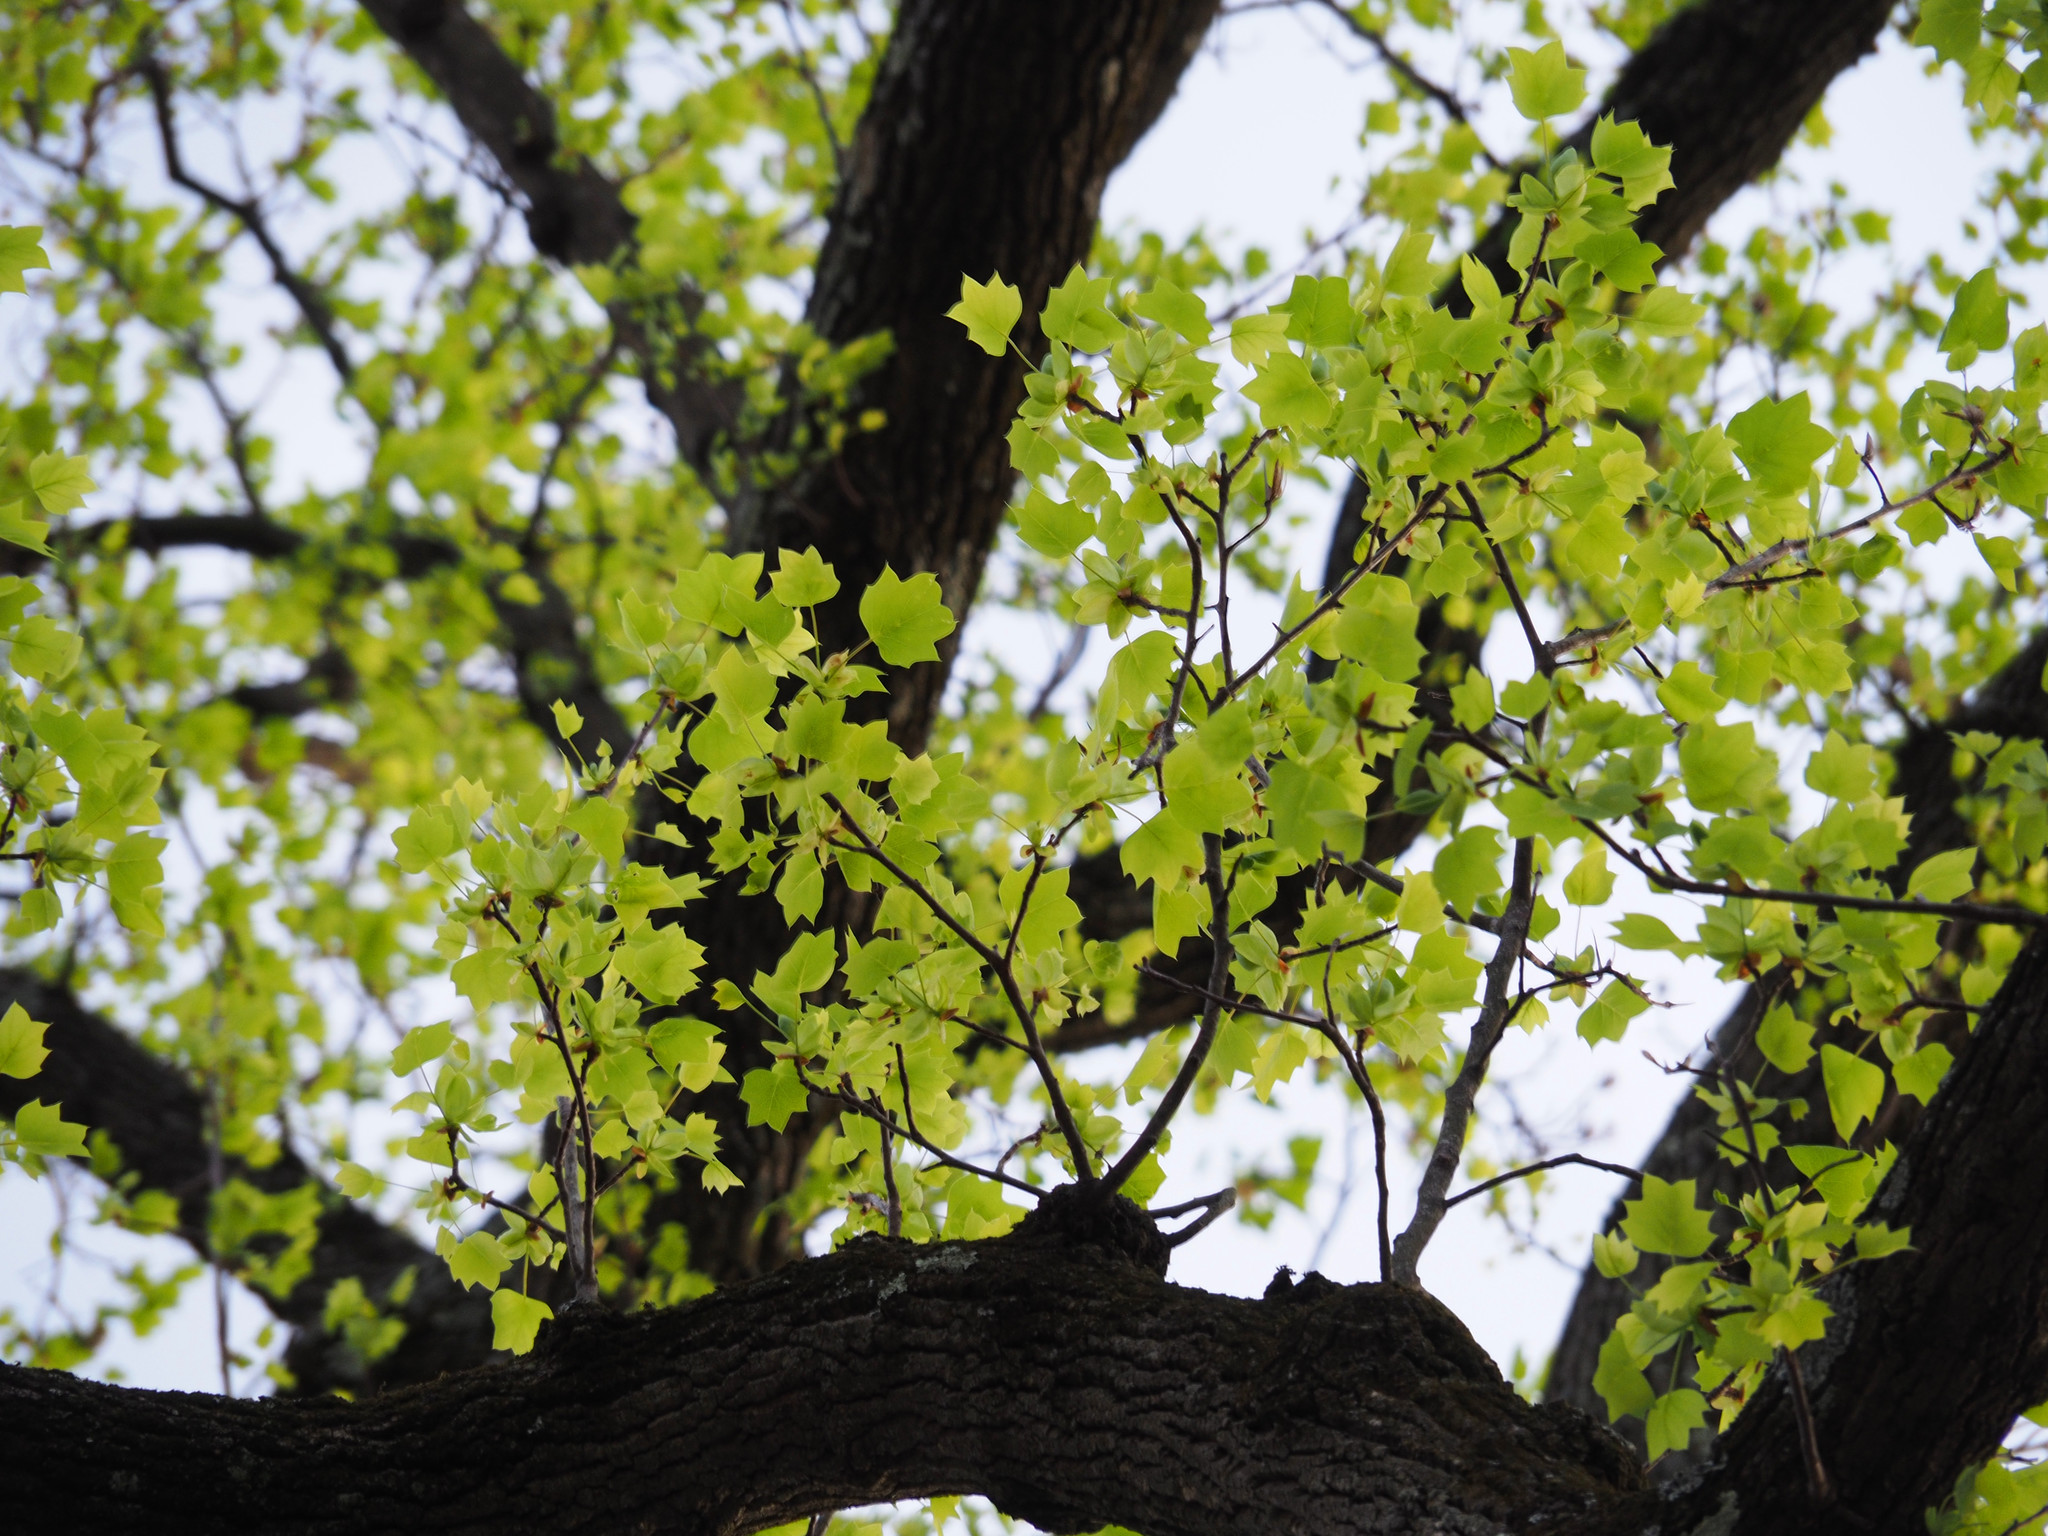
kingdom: Plantae
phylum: Tracheophyta
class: Magnoliopsida
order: Magnoliales
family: Magnoliaceae
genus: Liriodendron
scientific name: Liriodendron tulipifera
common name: Tulip tree
